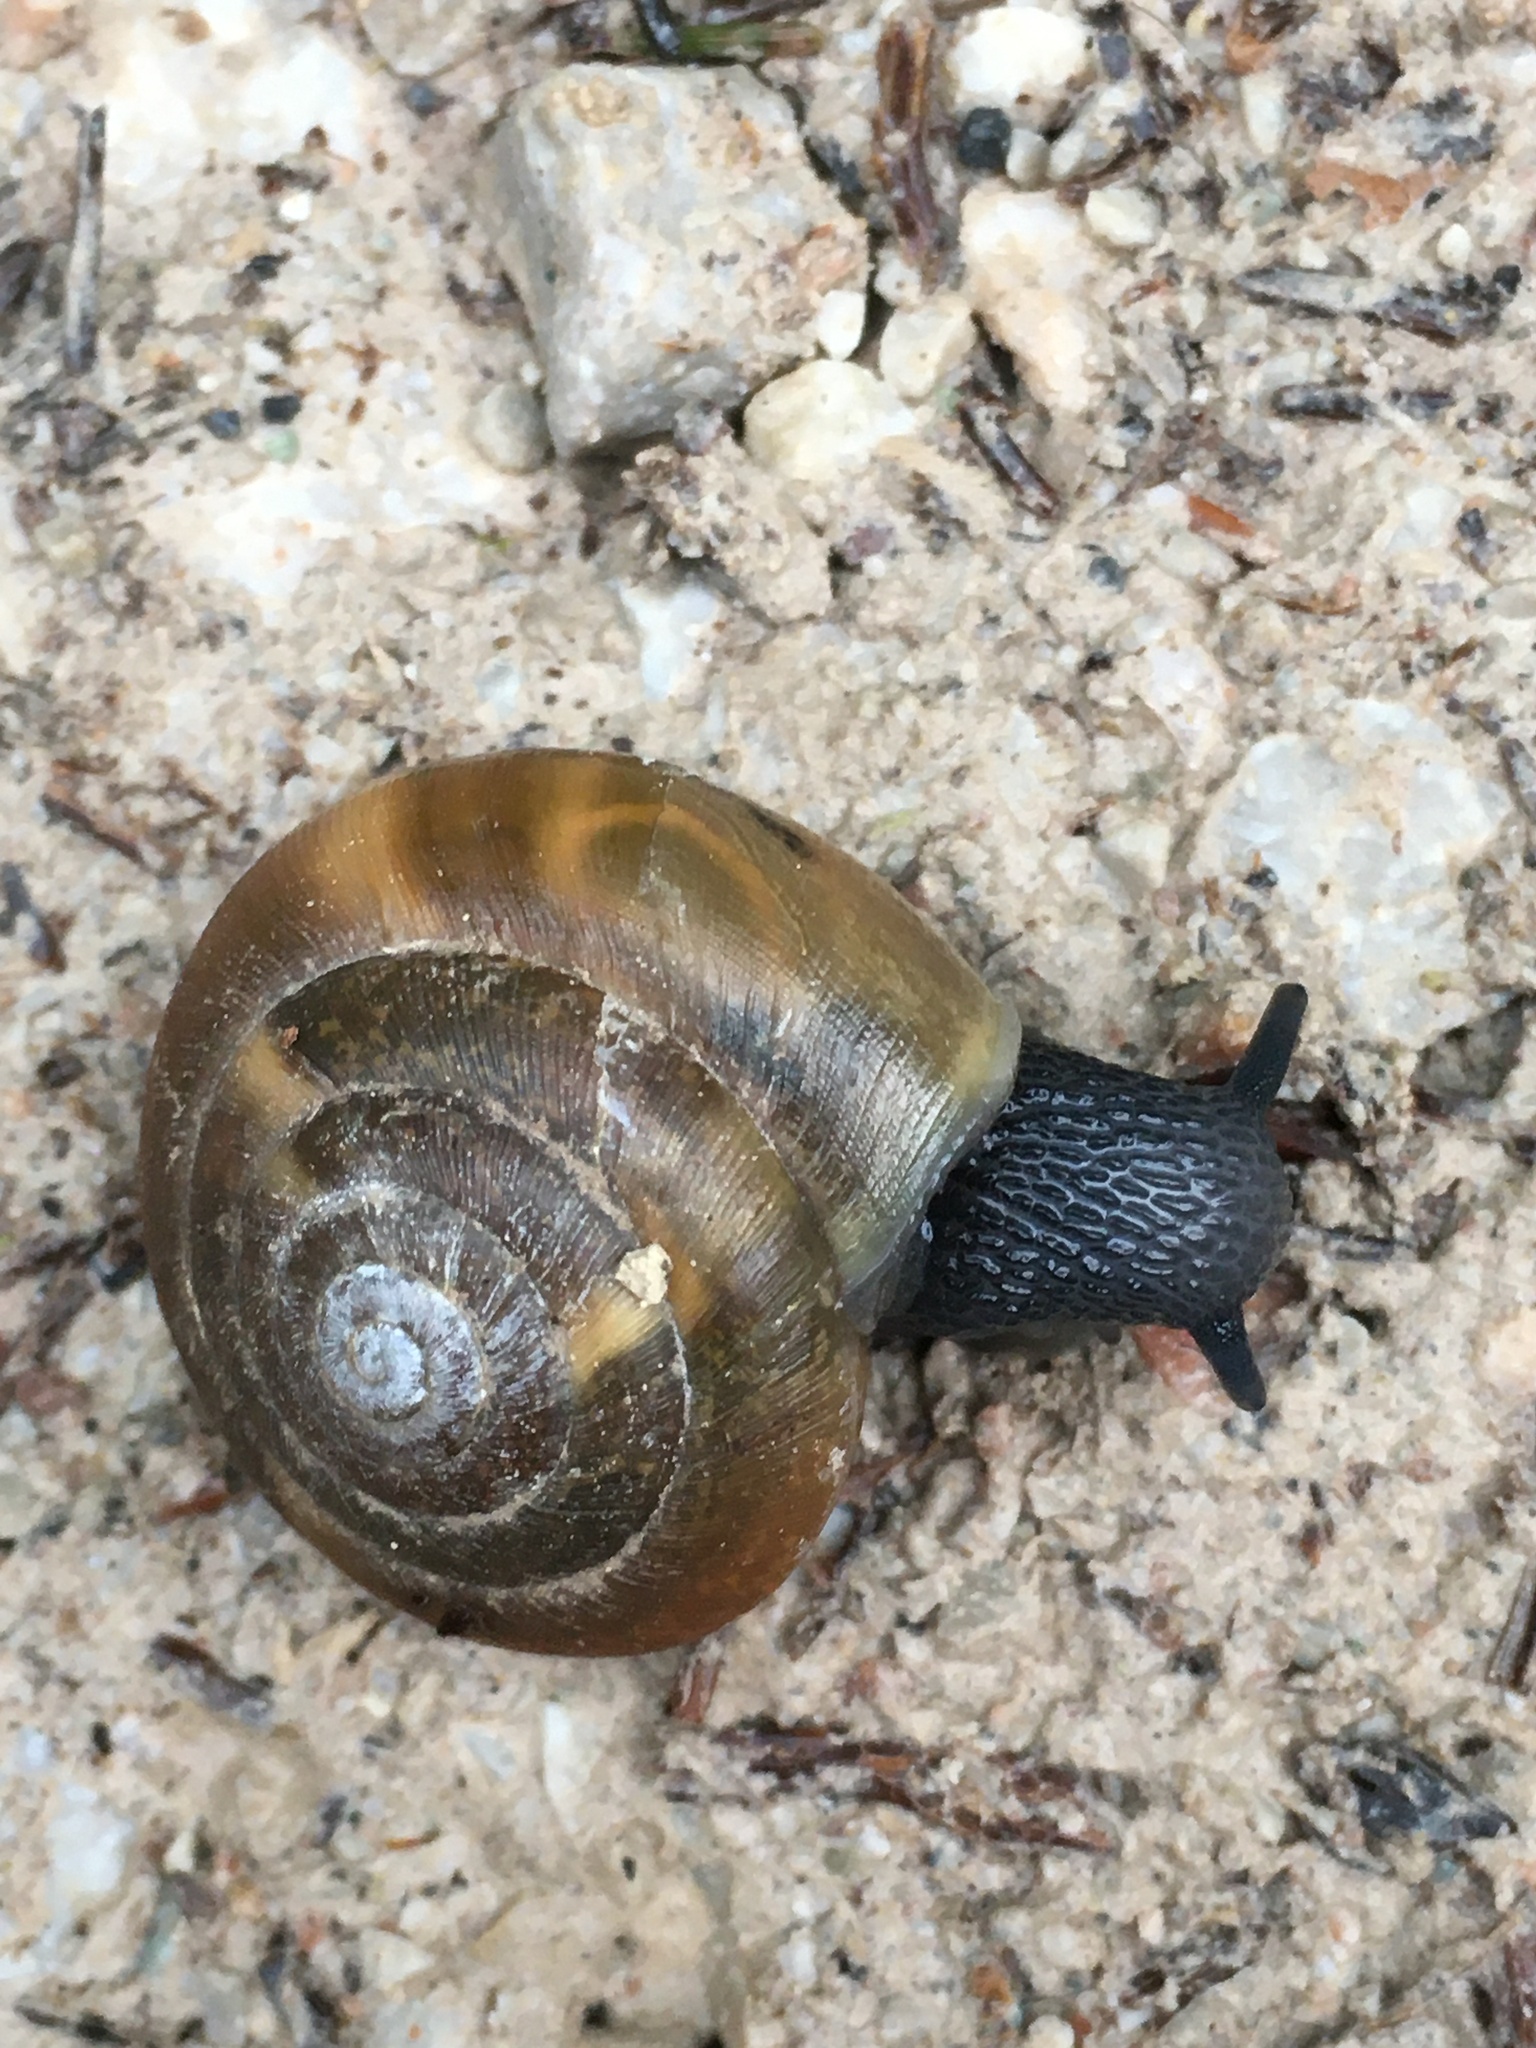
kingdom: Animalia
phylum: Mollusca
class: Gastropoda
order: Stylommatophora
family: Zonitidae
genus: Aegopis
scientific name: Aegopis verticillus
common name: Giant glass snail
